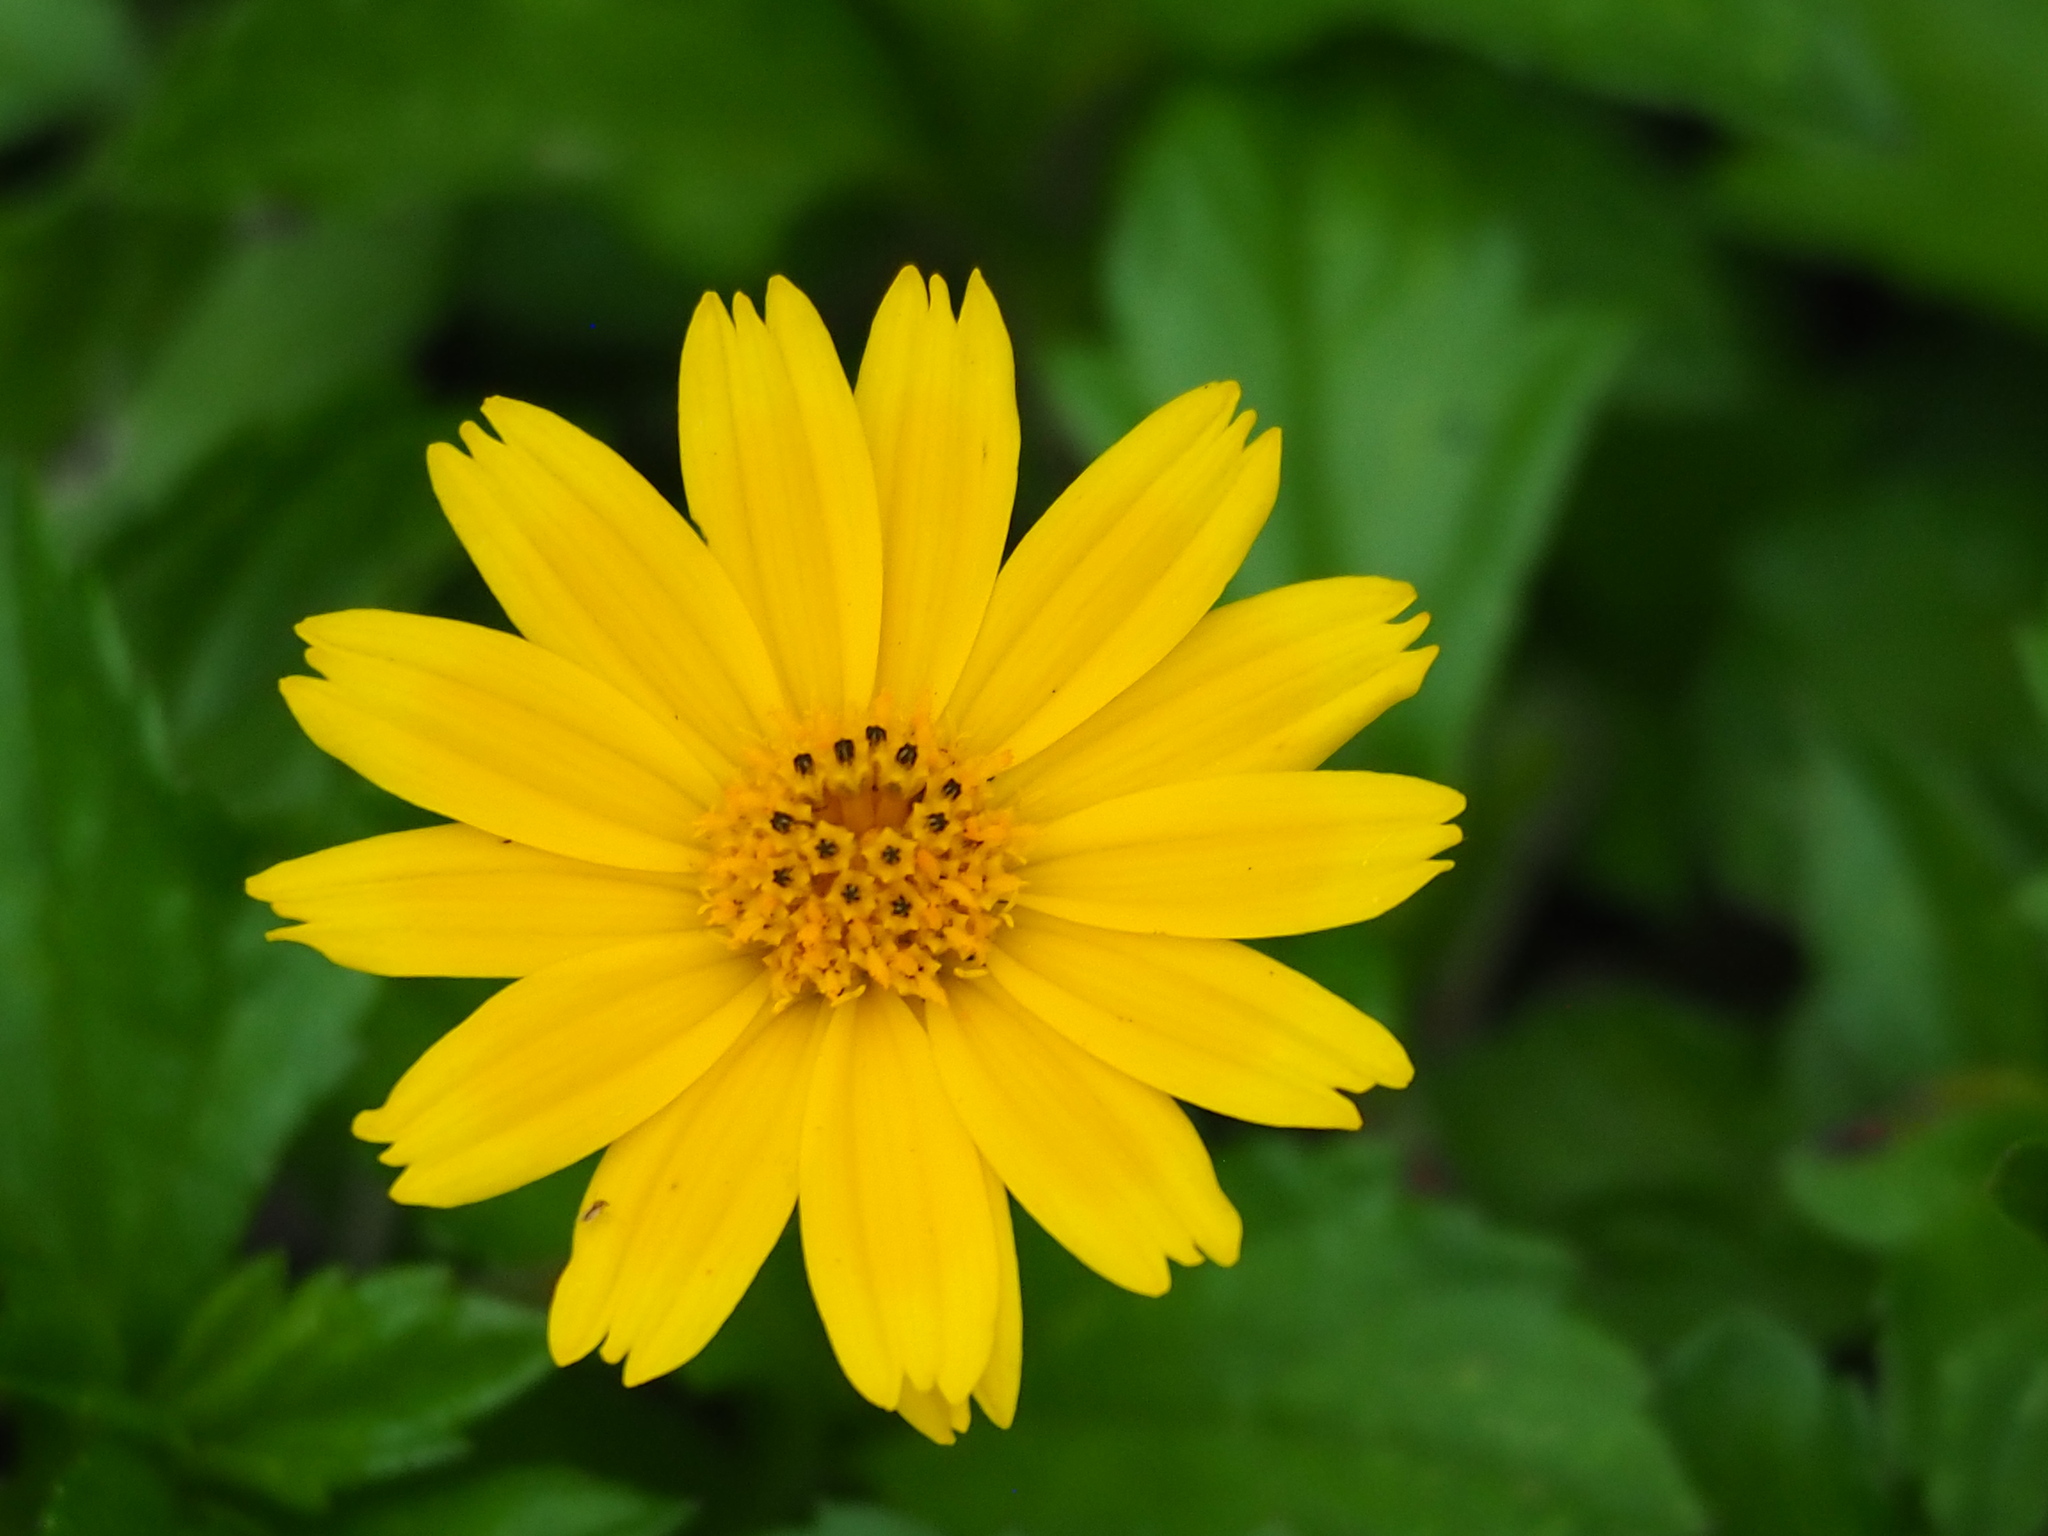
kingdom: Plantae
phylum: Tracheophyta
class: Magnoliopsida
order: Asterales
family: Asteraceae
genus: Sphagneticola
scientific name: Sphagneticola trilobata
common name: Bay biscayne creeping-oxeye
